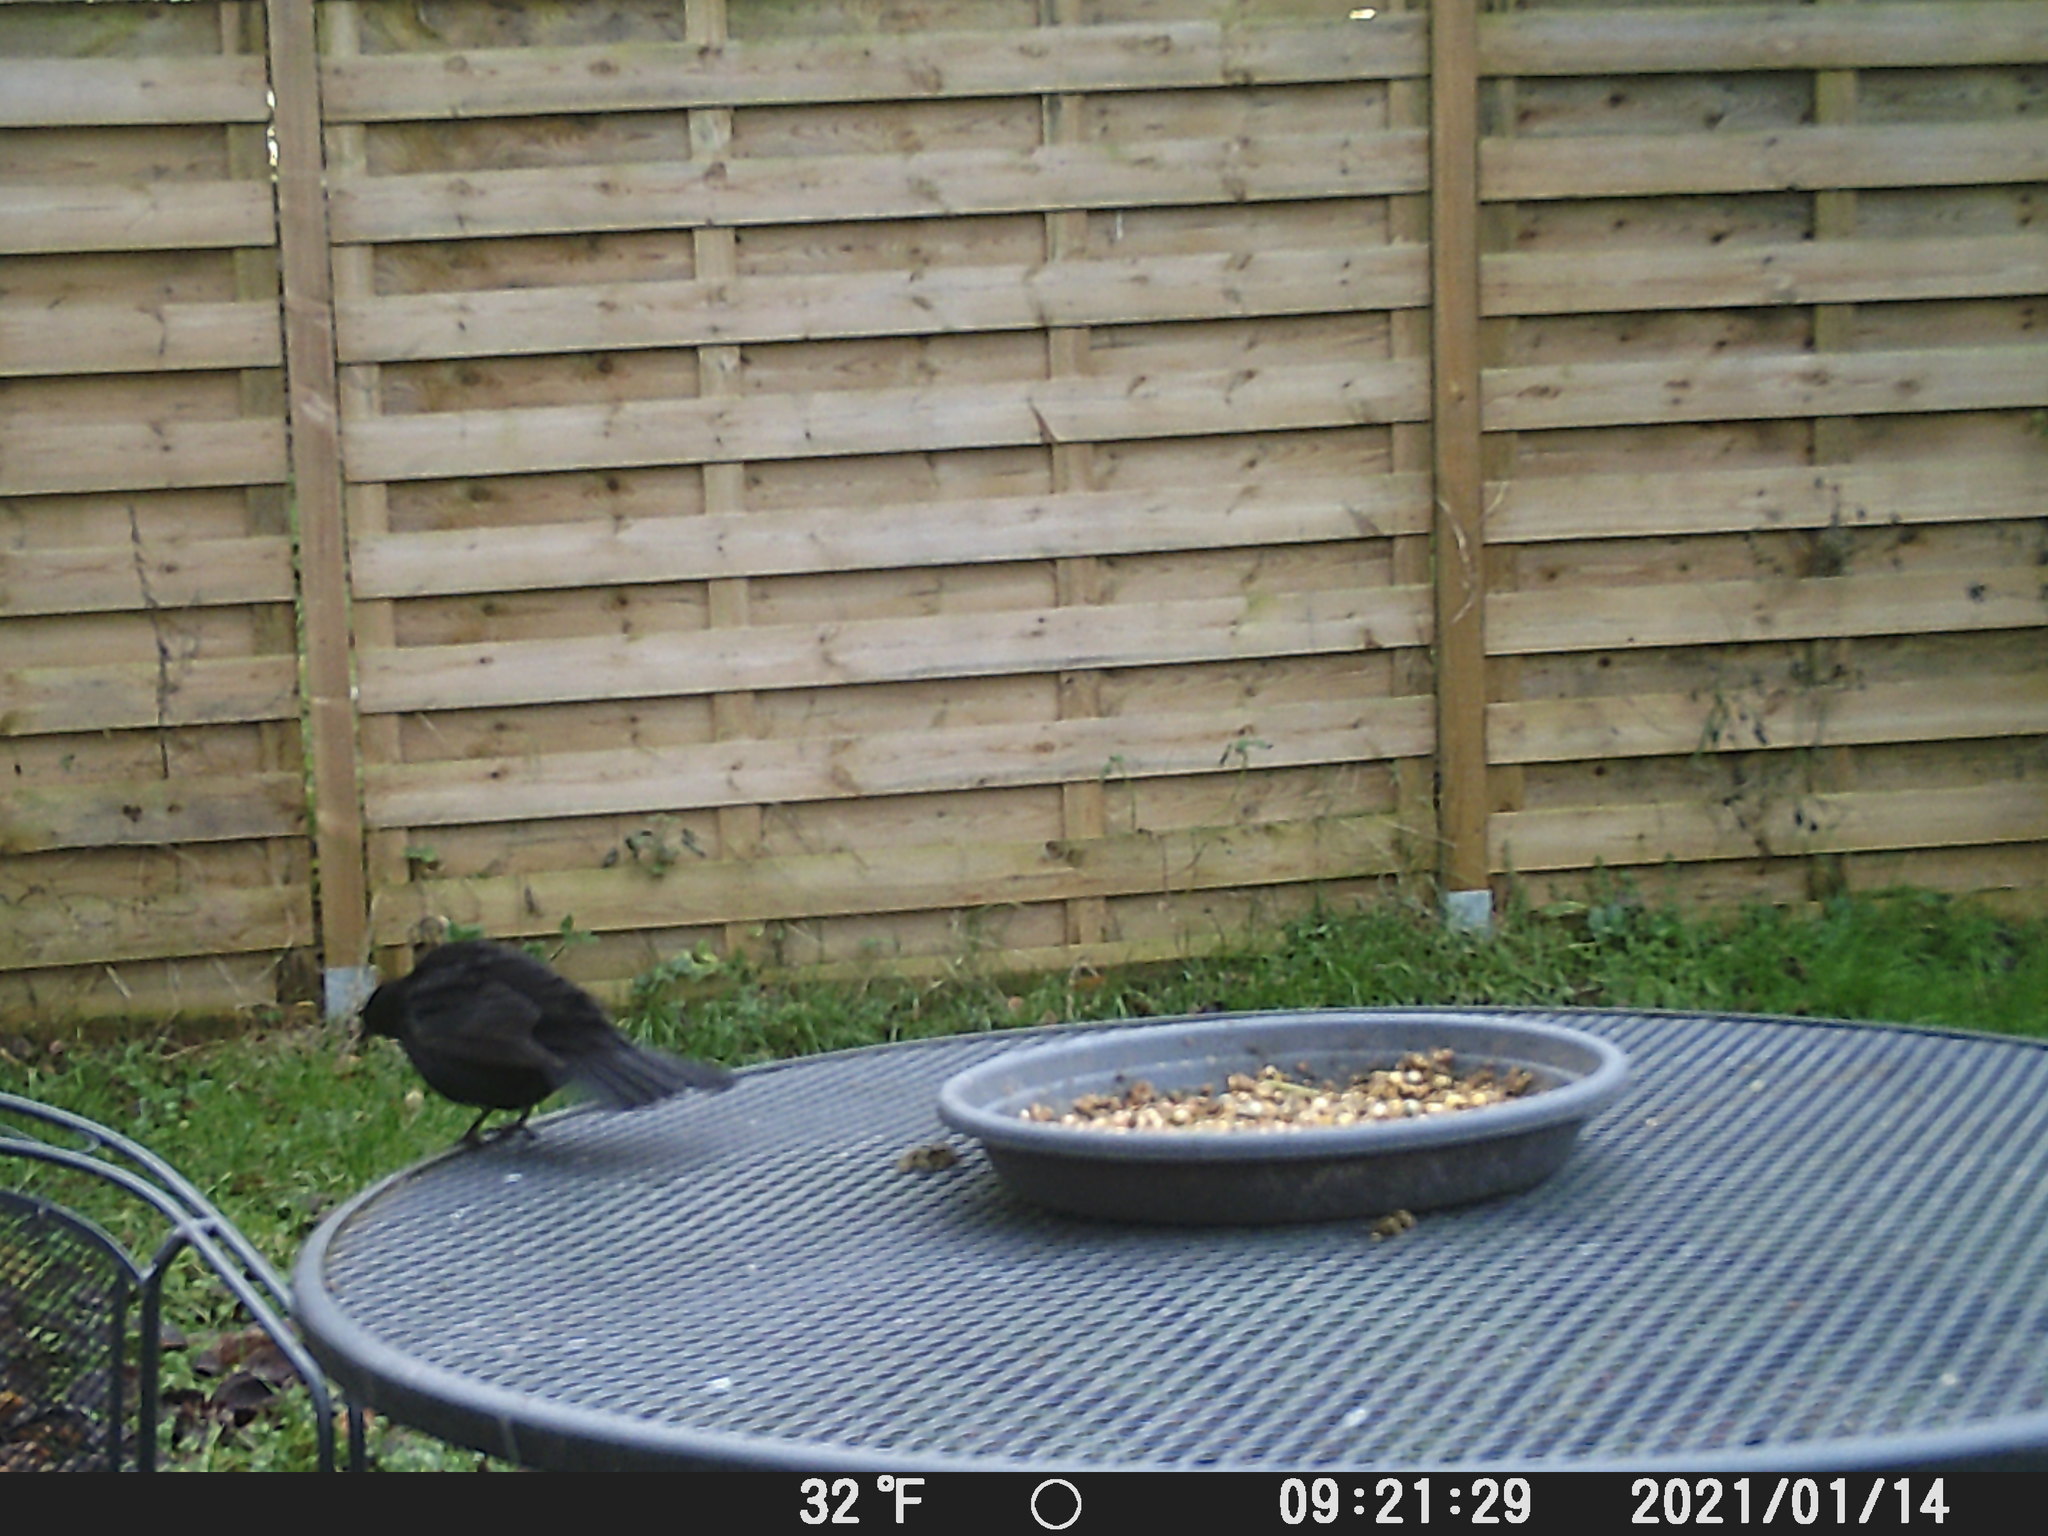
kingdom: Animalia
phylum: Chordata
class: Aves
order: Passeriformes
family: Turdidae
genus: Turdus
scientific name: Turdus merula
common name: Common blackbird
